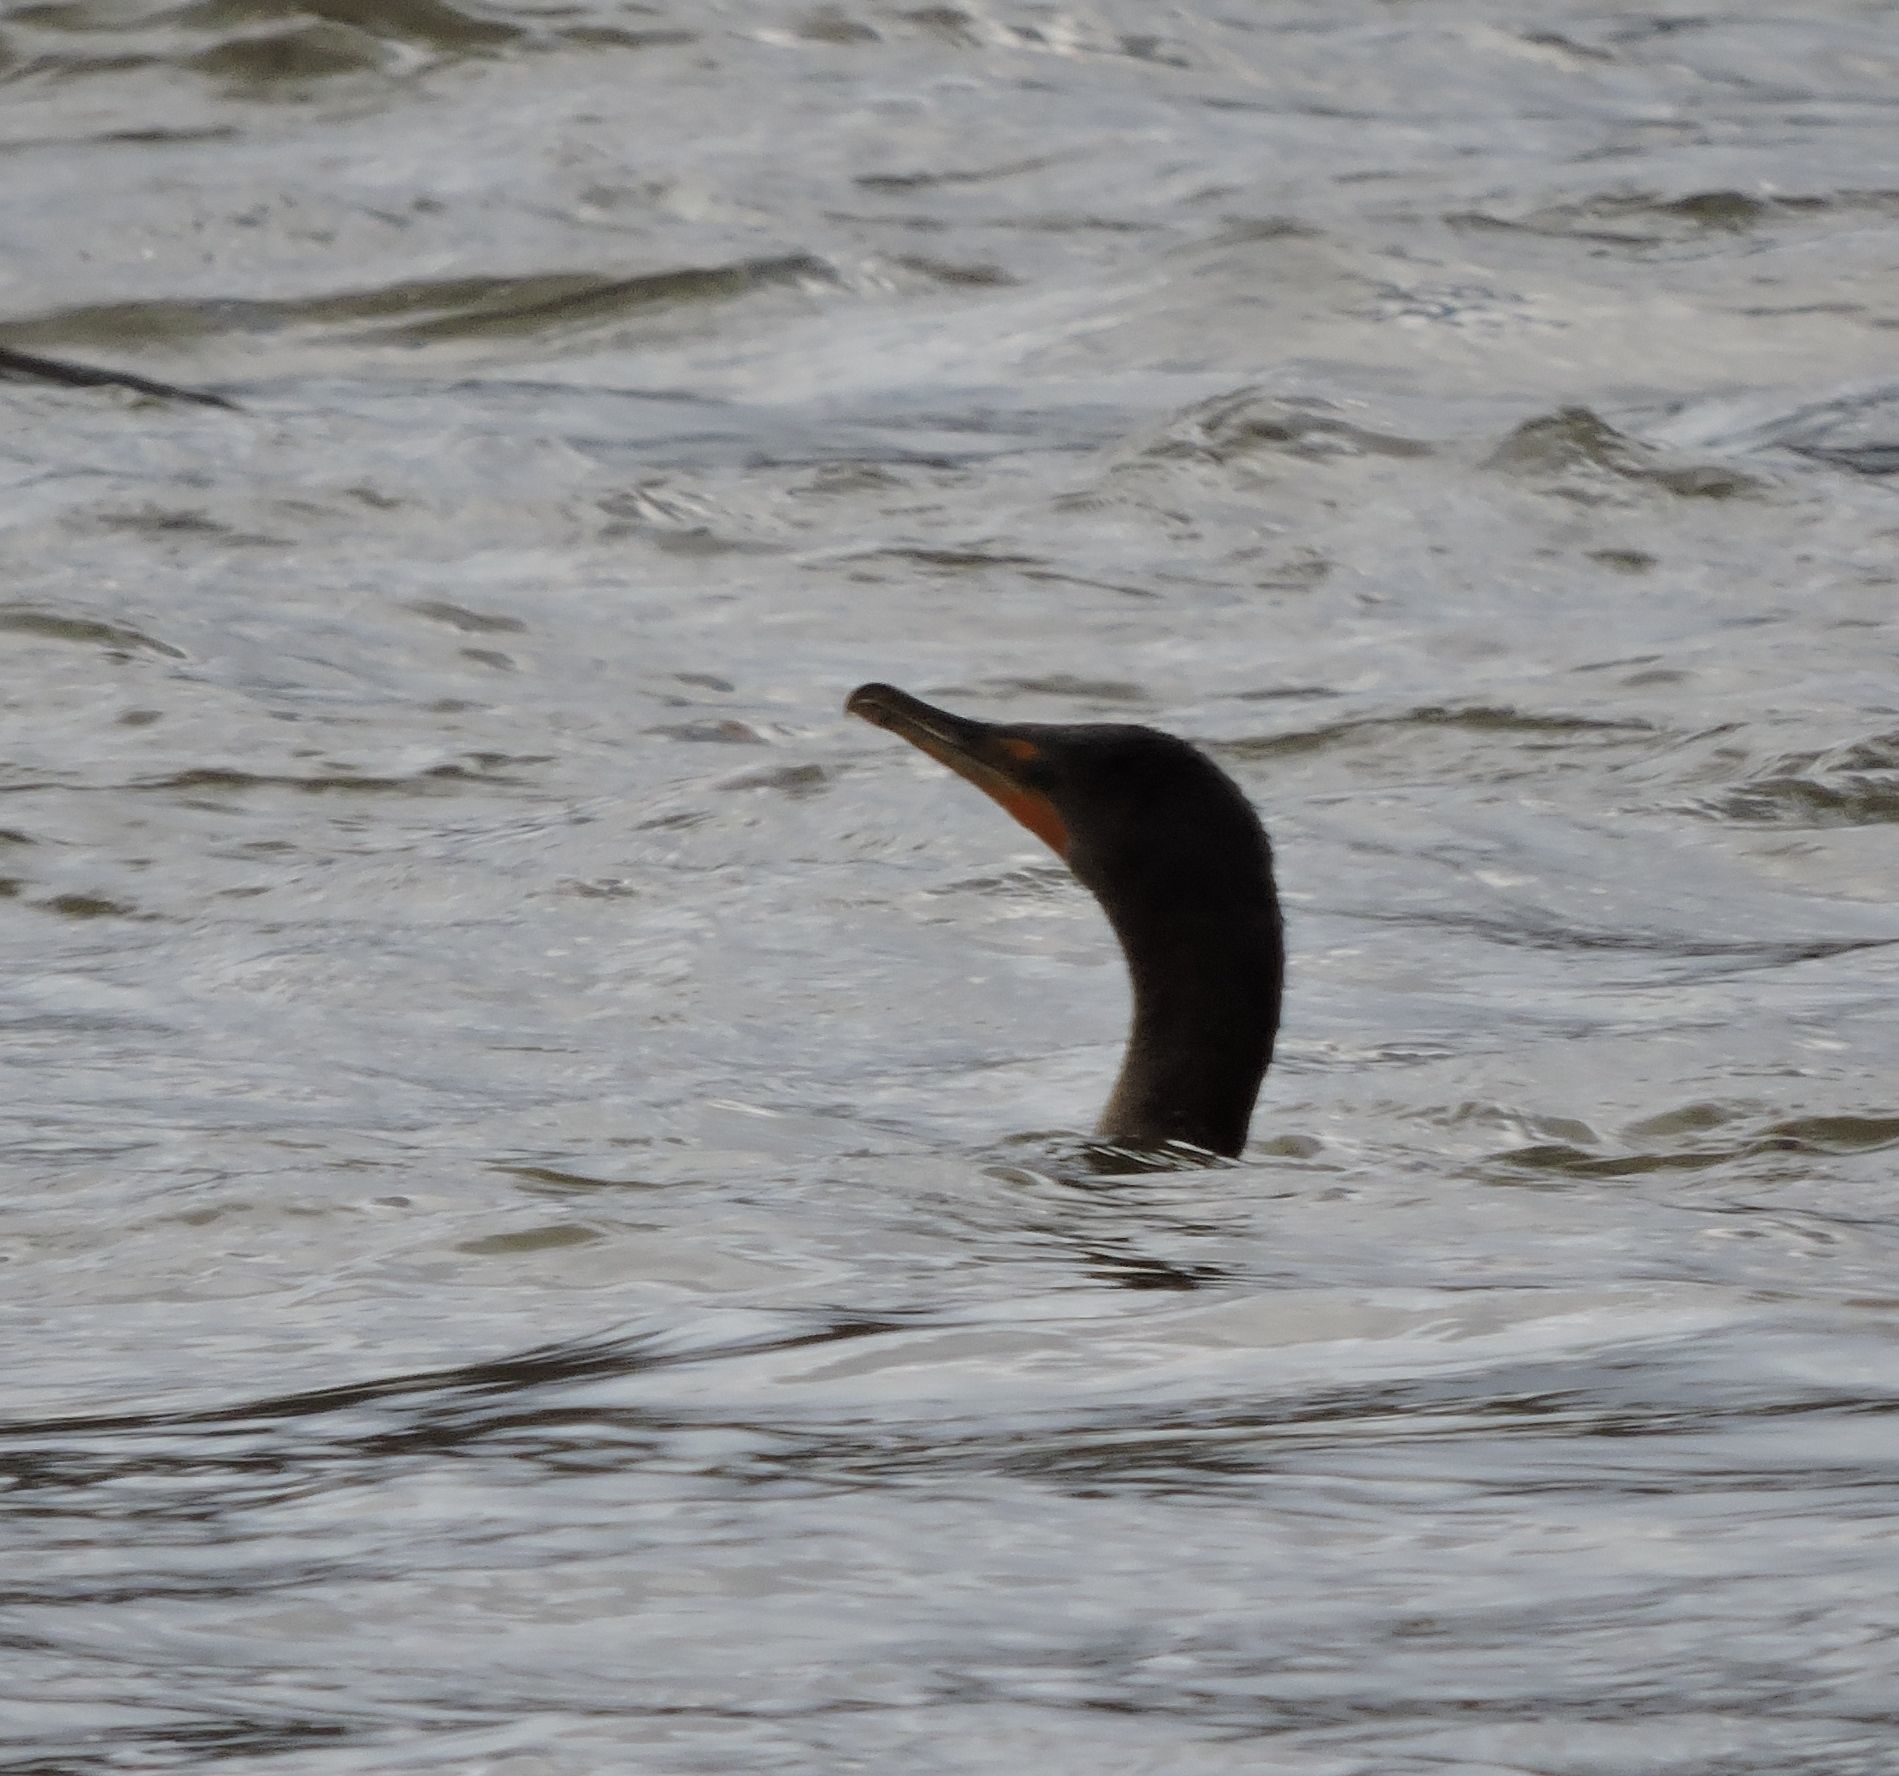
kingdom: Animalia
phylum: Chordata
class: Aves
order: Suliformes
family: Phalacrocoracidae
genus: Phalacrocorax
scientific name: Phalacrocorax auritus
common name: Double-crested cormorant
